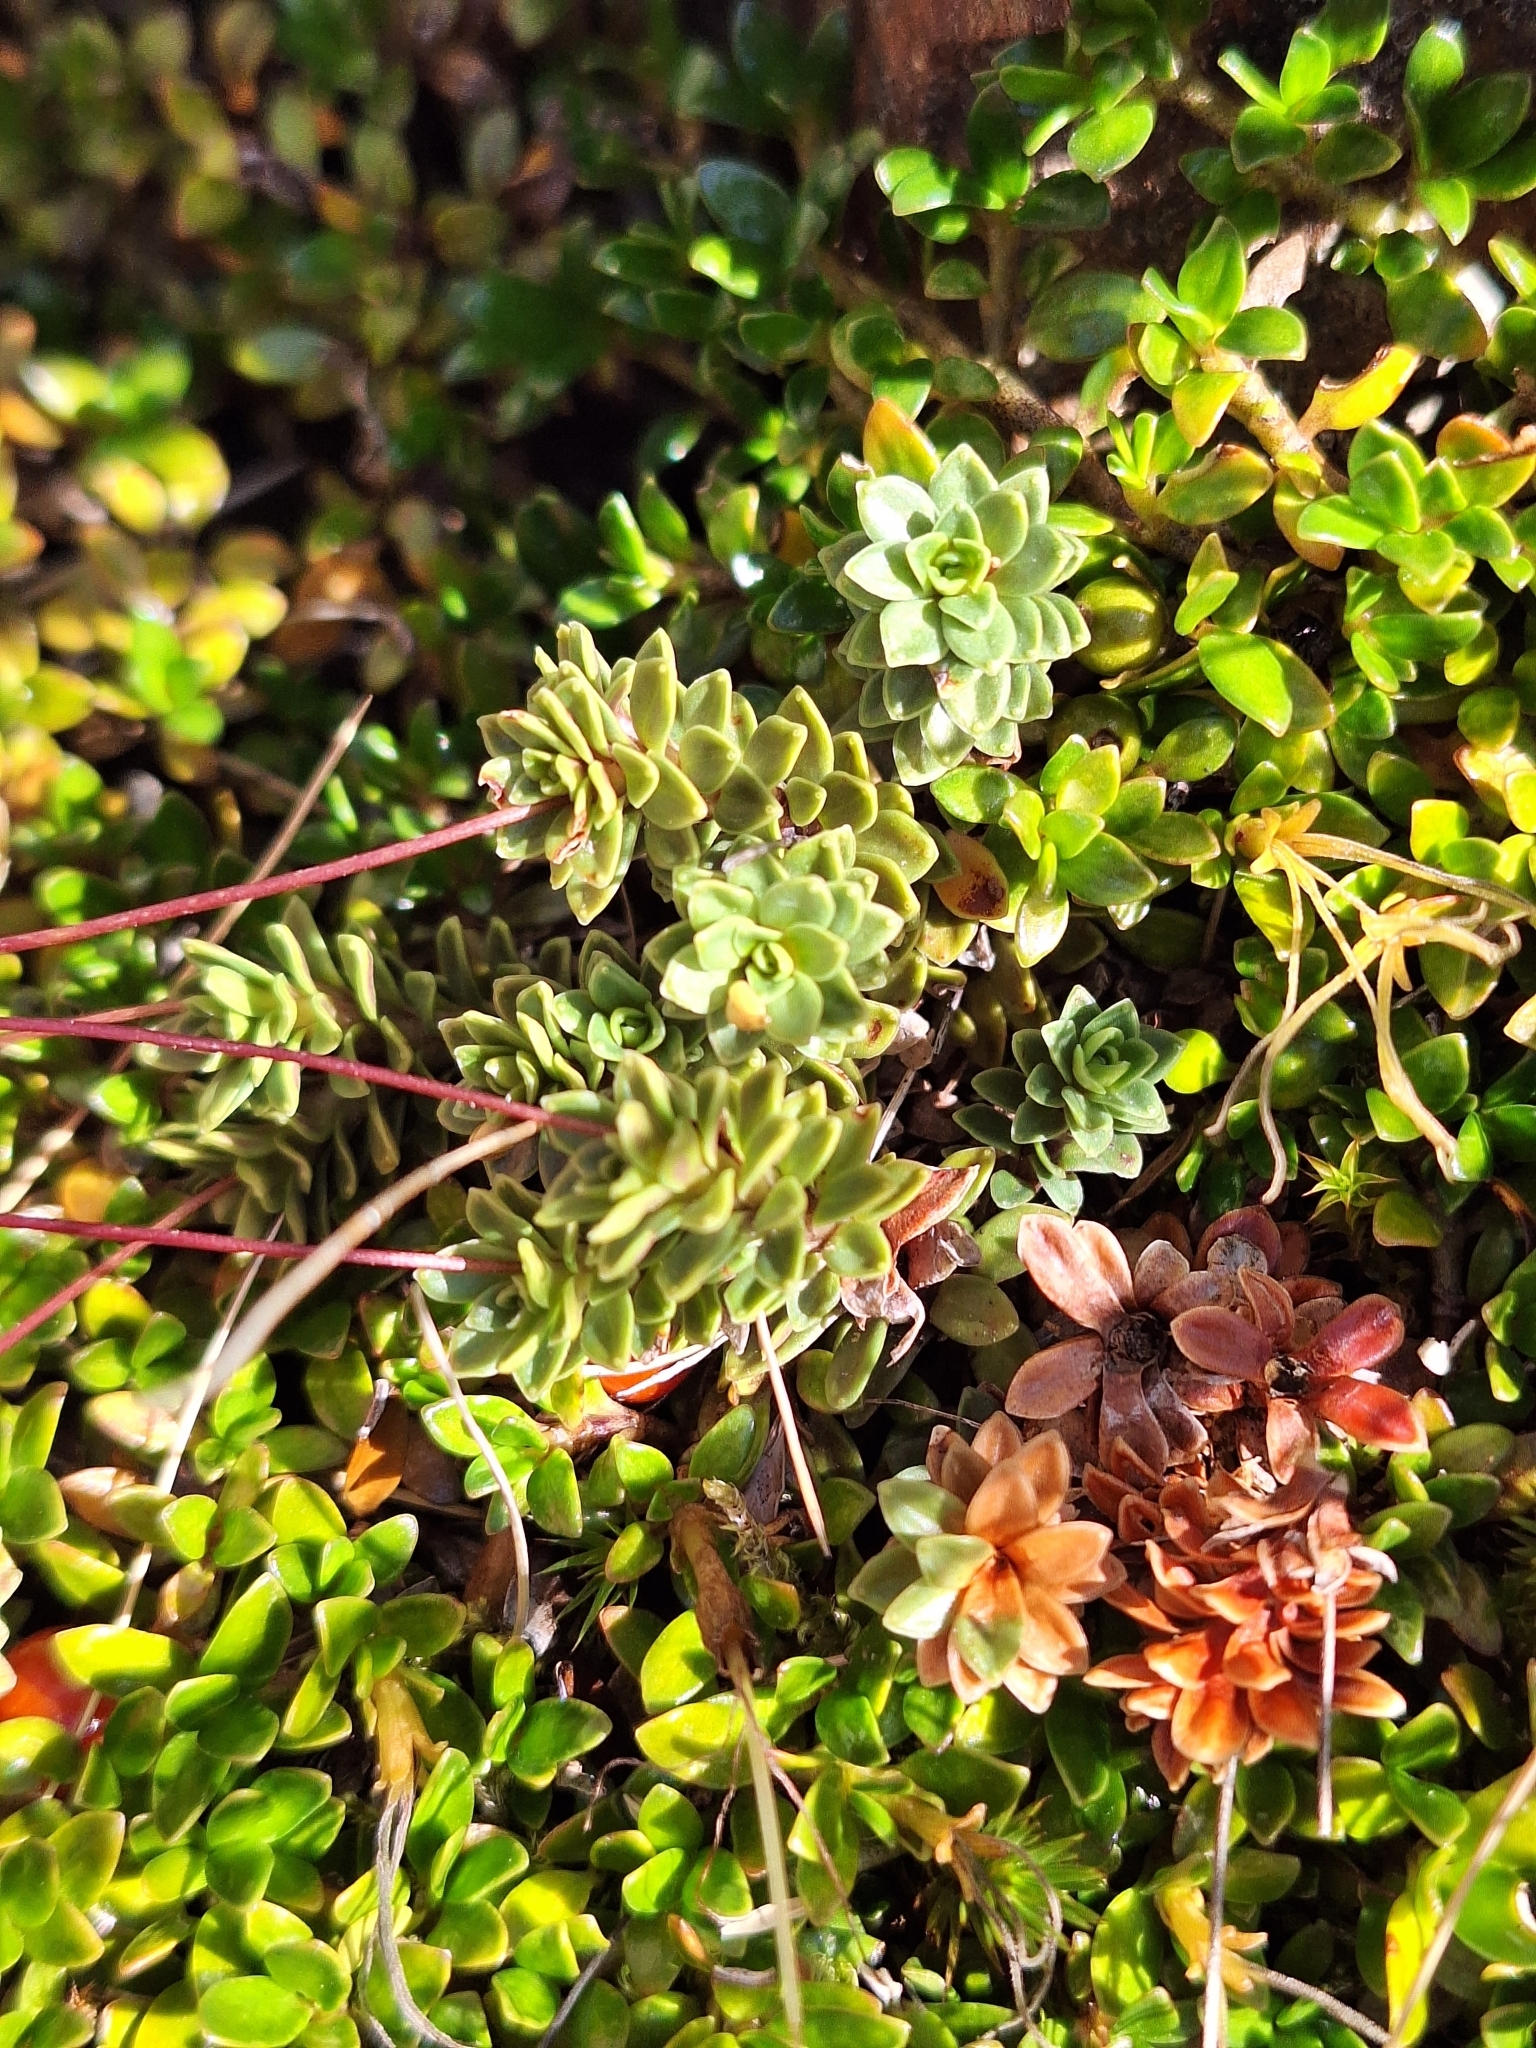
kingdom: Plantae
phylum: Tracheophyta
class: Magnoliopsida
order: Asterales
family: Stylidiaceae
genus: Forstera
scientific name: Forstera tenella
